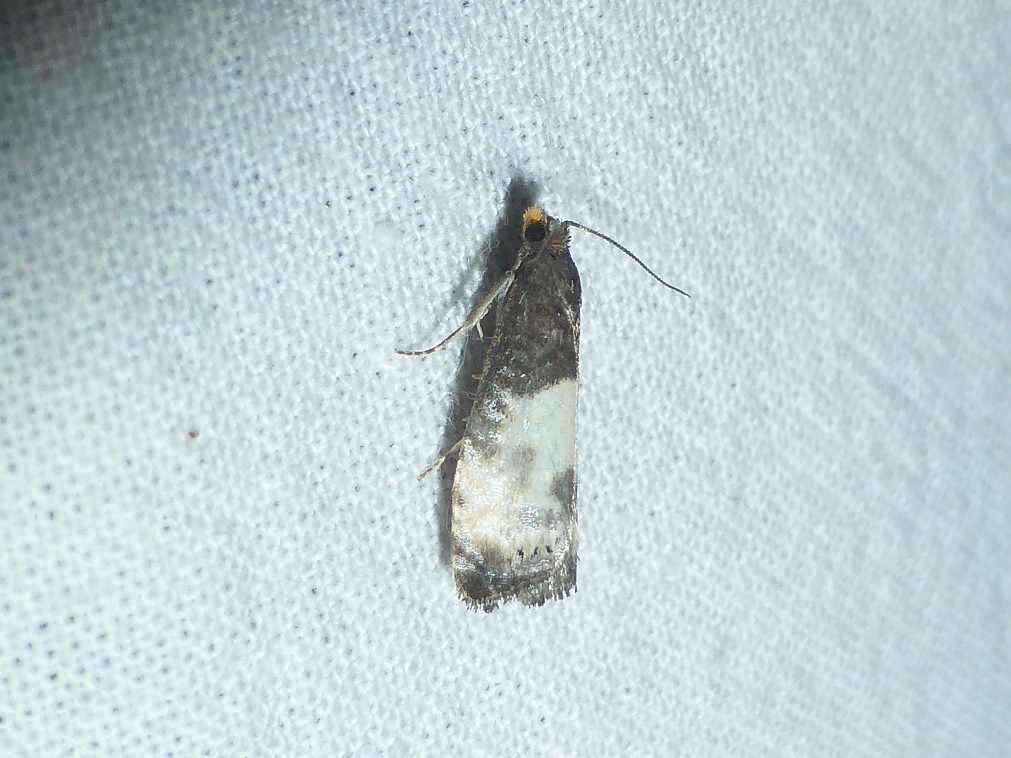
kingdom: Animalia
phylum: Arthropoda
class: Insecta
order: Lepidoptera
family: Tortricidae
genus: Notocelia
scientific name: Notocelia cynosbatella
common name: Yellow-faced bell moth
